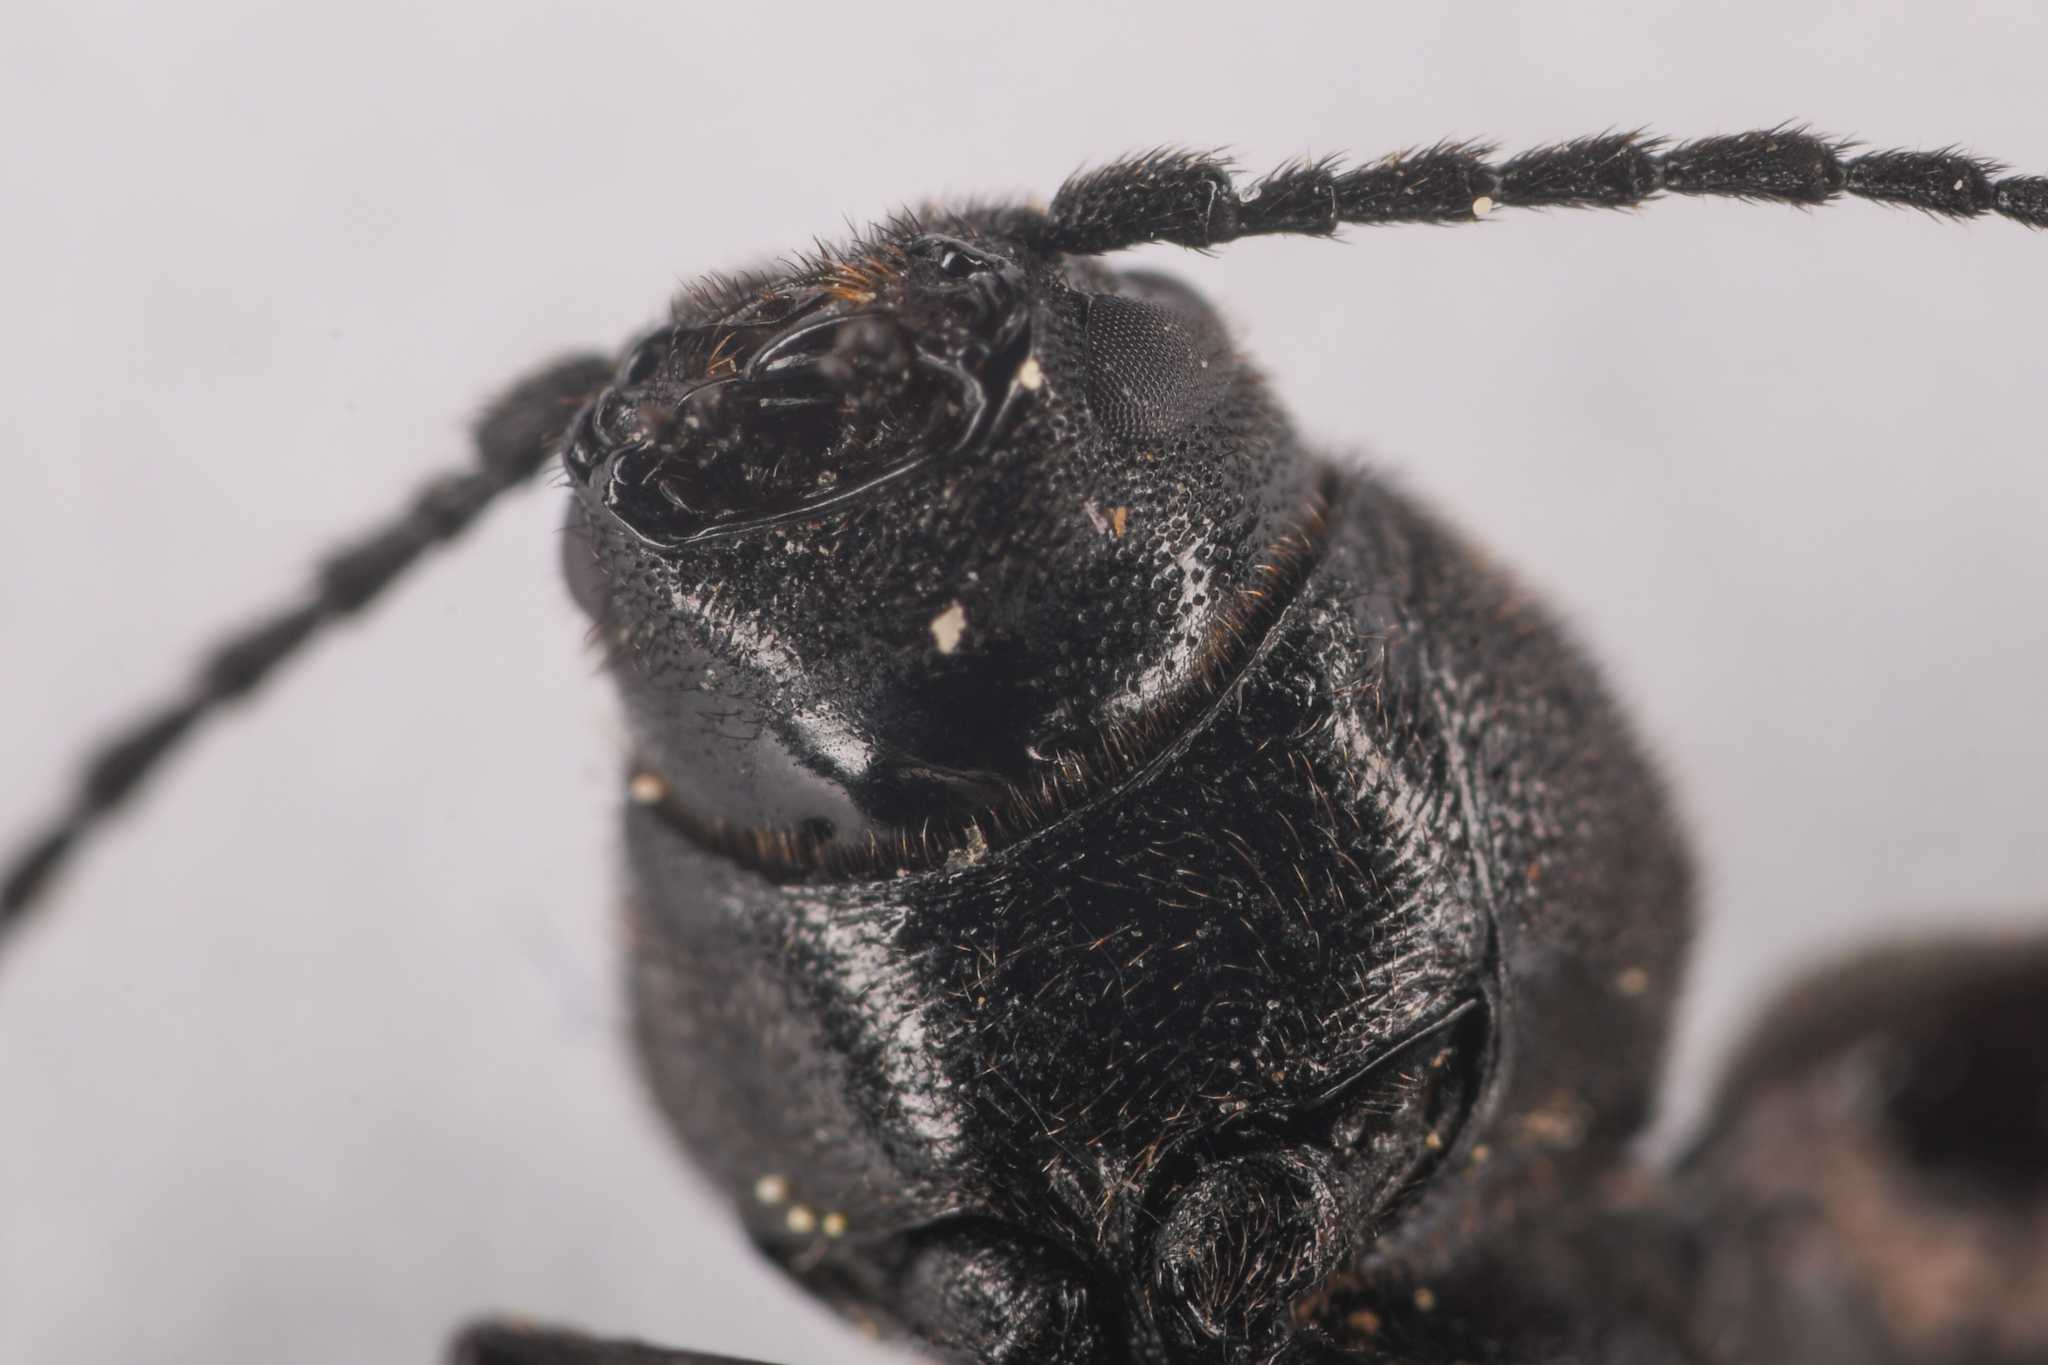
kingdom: Animalia
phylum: Arthropoda
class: Insecta
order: Coleoptera
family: Cerambycidae
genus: Asemum
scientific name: Asemum striatum
